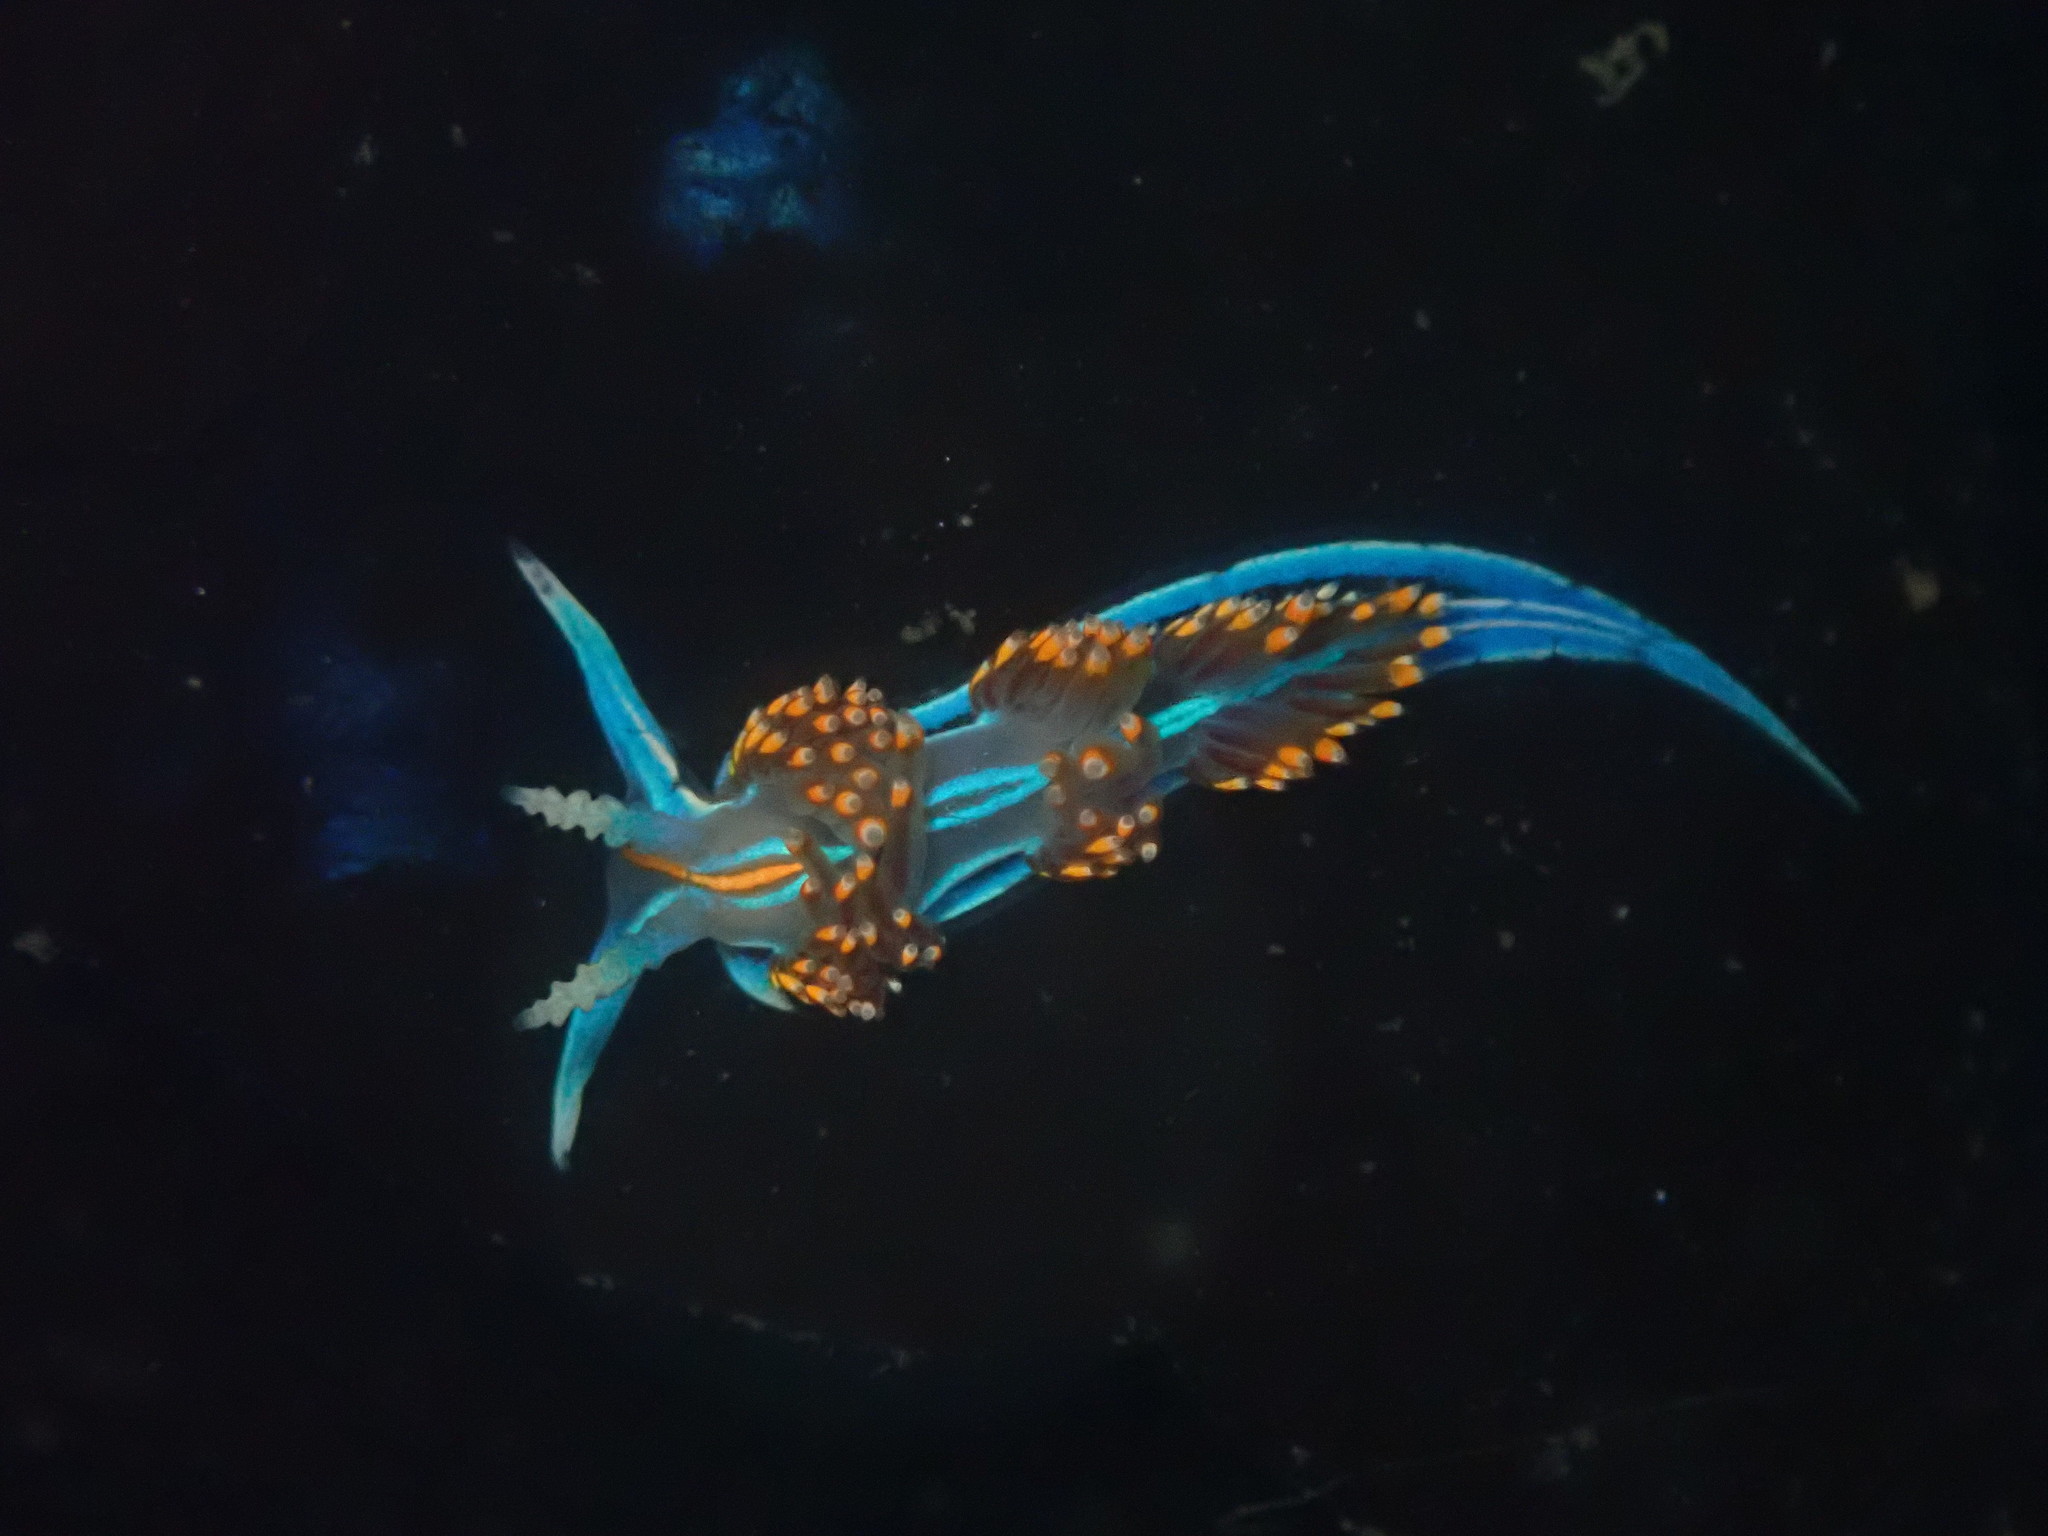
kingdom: Animalia
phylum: Mollusca
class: Gastropoda
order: Nudibranchia
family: Myrrhinidae
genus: Hermissenda
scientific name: Hermissenda opalescens
